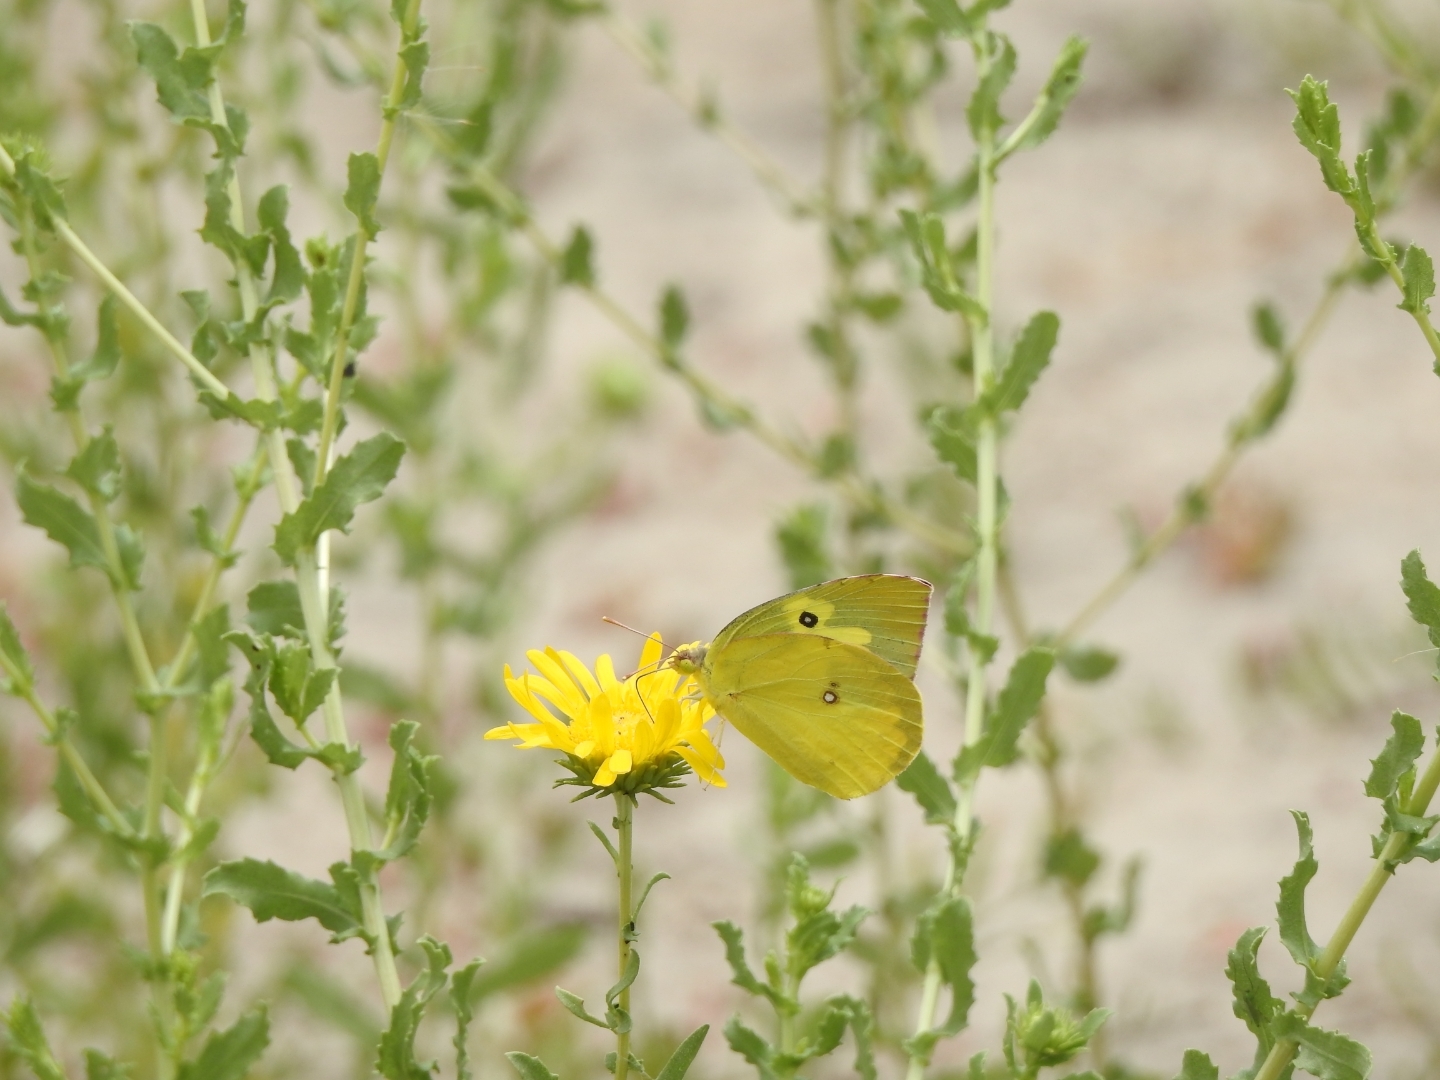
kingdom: Animalia
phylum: Arthropoda
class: Insecta
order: Lepidoptera
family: Pieridae
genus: Zerene
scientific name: Zerene cesonia
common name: Southern dogface
